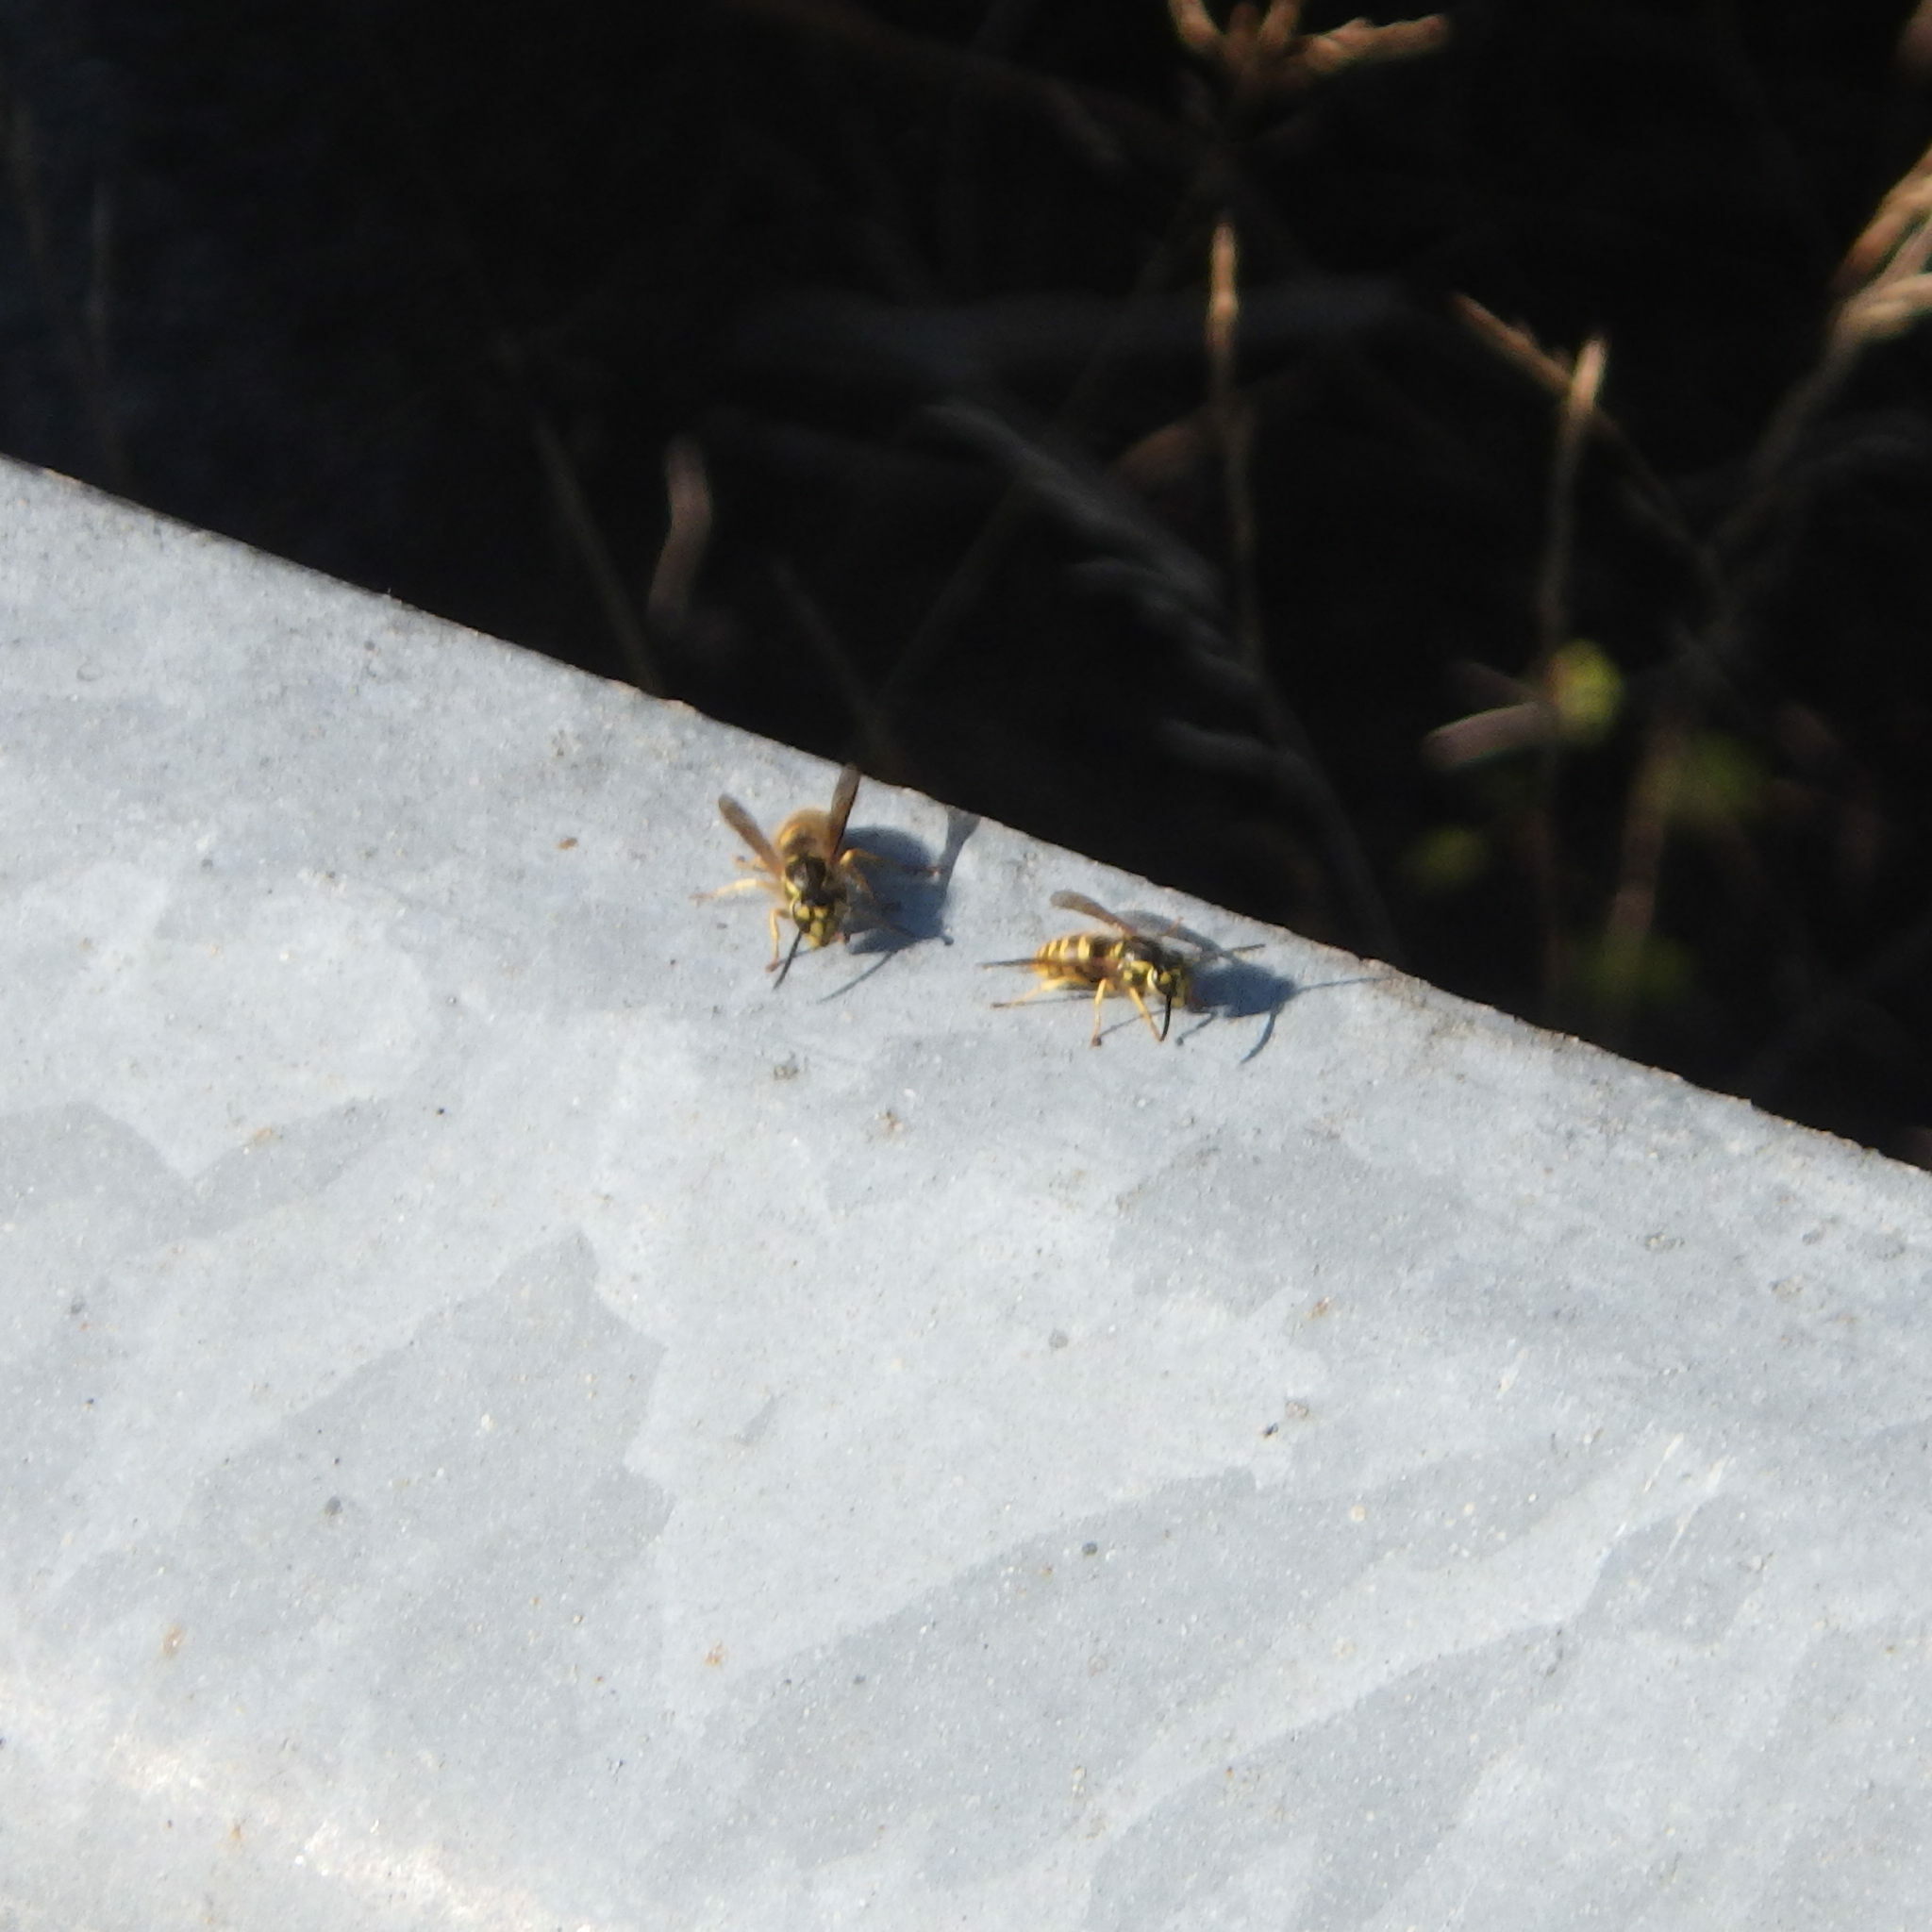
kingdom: Animalia
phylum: Arthropoda
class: Insecta
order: Hymenoptera
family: Vespidae
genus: Vespula
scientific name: Vespula flavopilosa
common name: Downy yellowjacket
